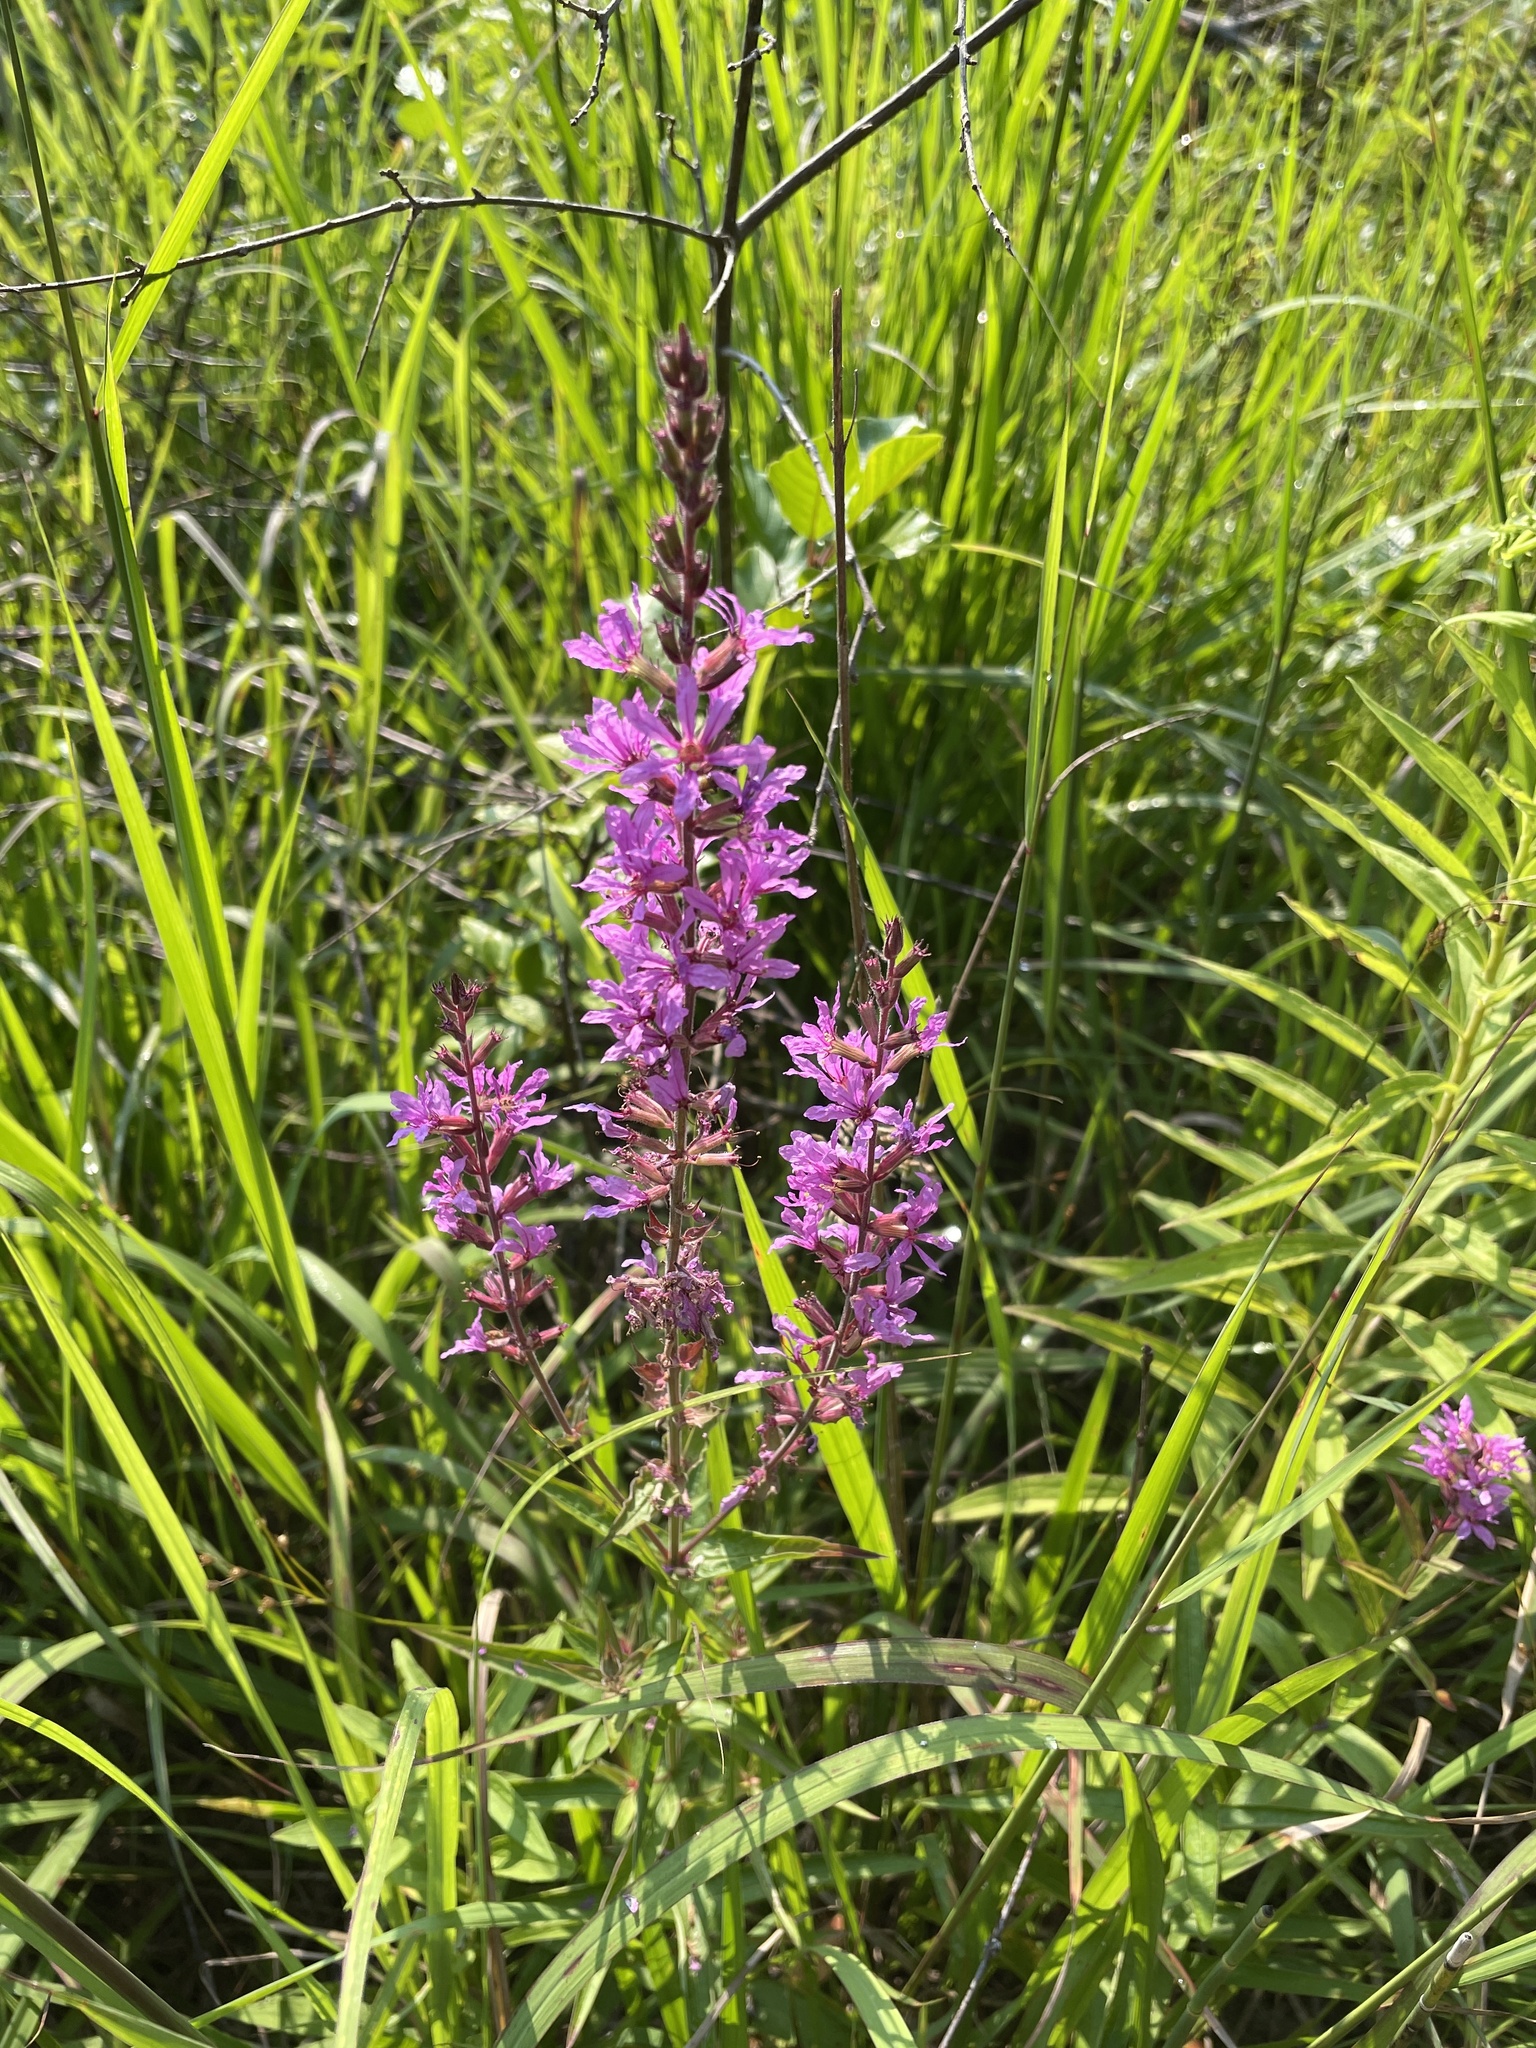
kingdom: Plantae
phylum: Tracheophyta
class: Magnoliopsida
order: Myrtales
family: Lythraceae
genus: Lythrum
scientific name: Lythrum salicaria
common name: Purple loosestrife
